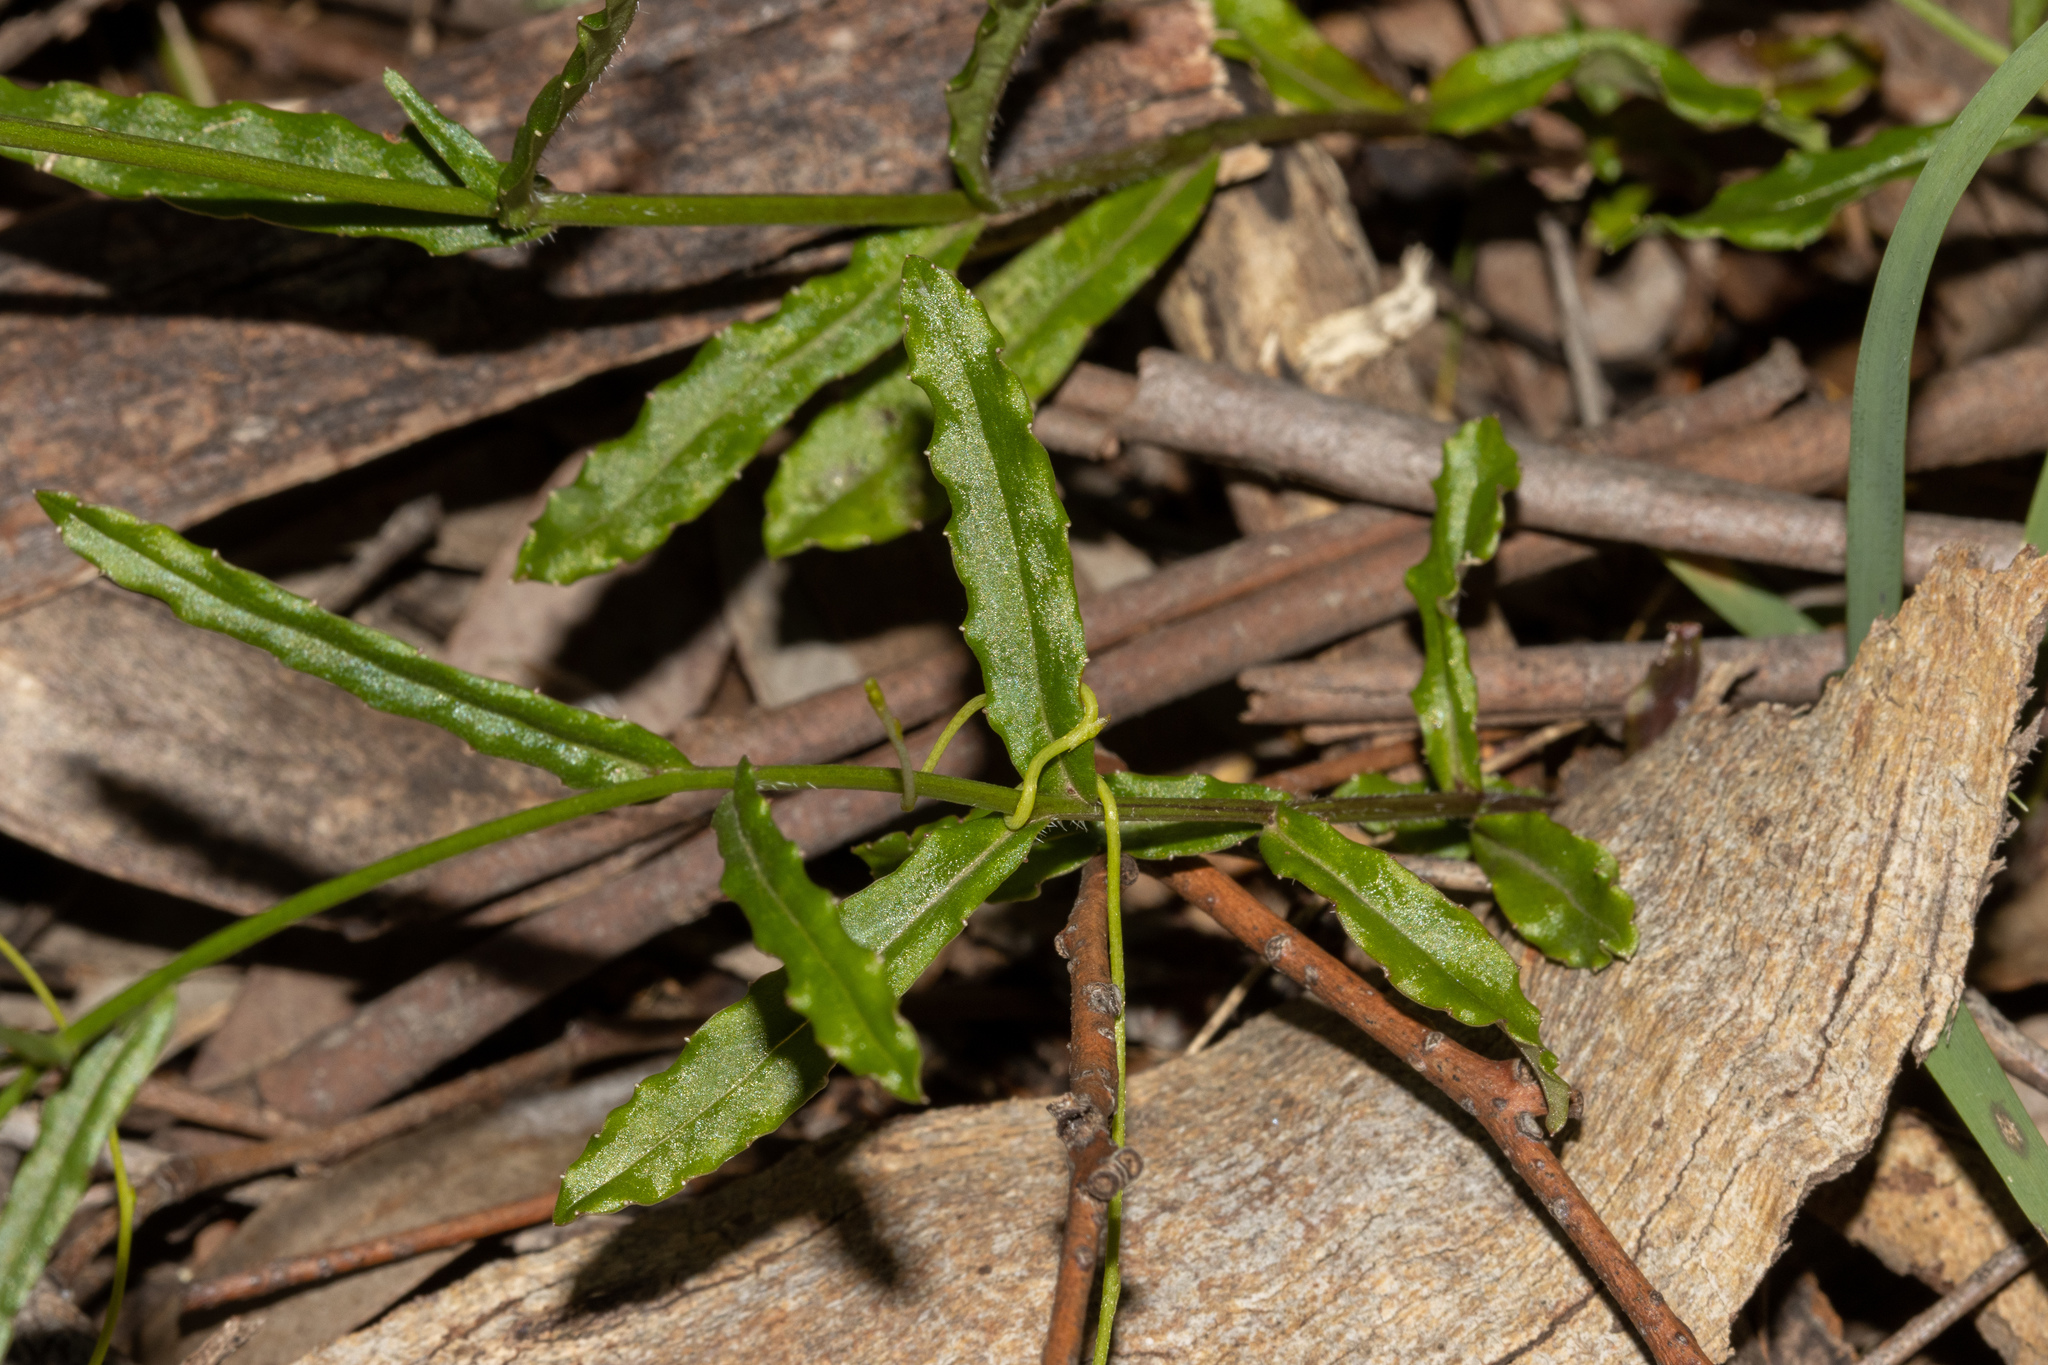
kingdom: Plantae
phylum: Tracheophyta
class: Magnoliopsida
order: Asterales
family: Campanulaceae
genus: Wahlenbergia
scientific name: Wahlenbergia stricta
